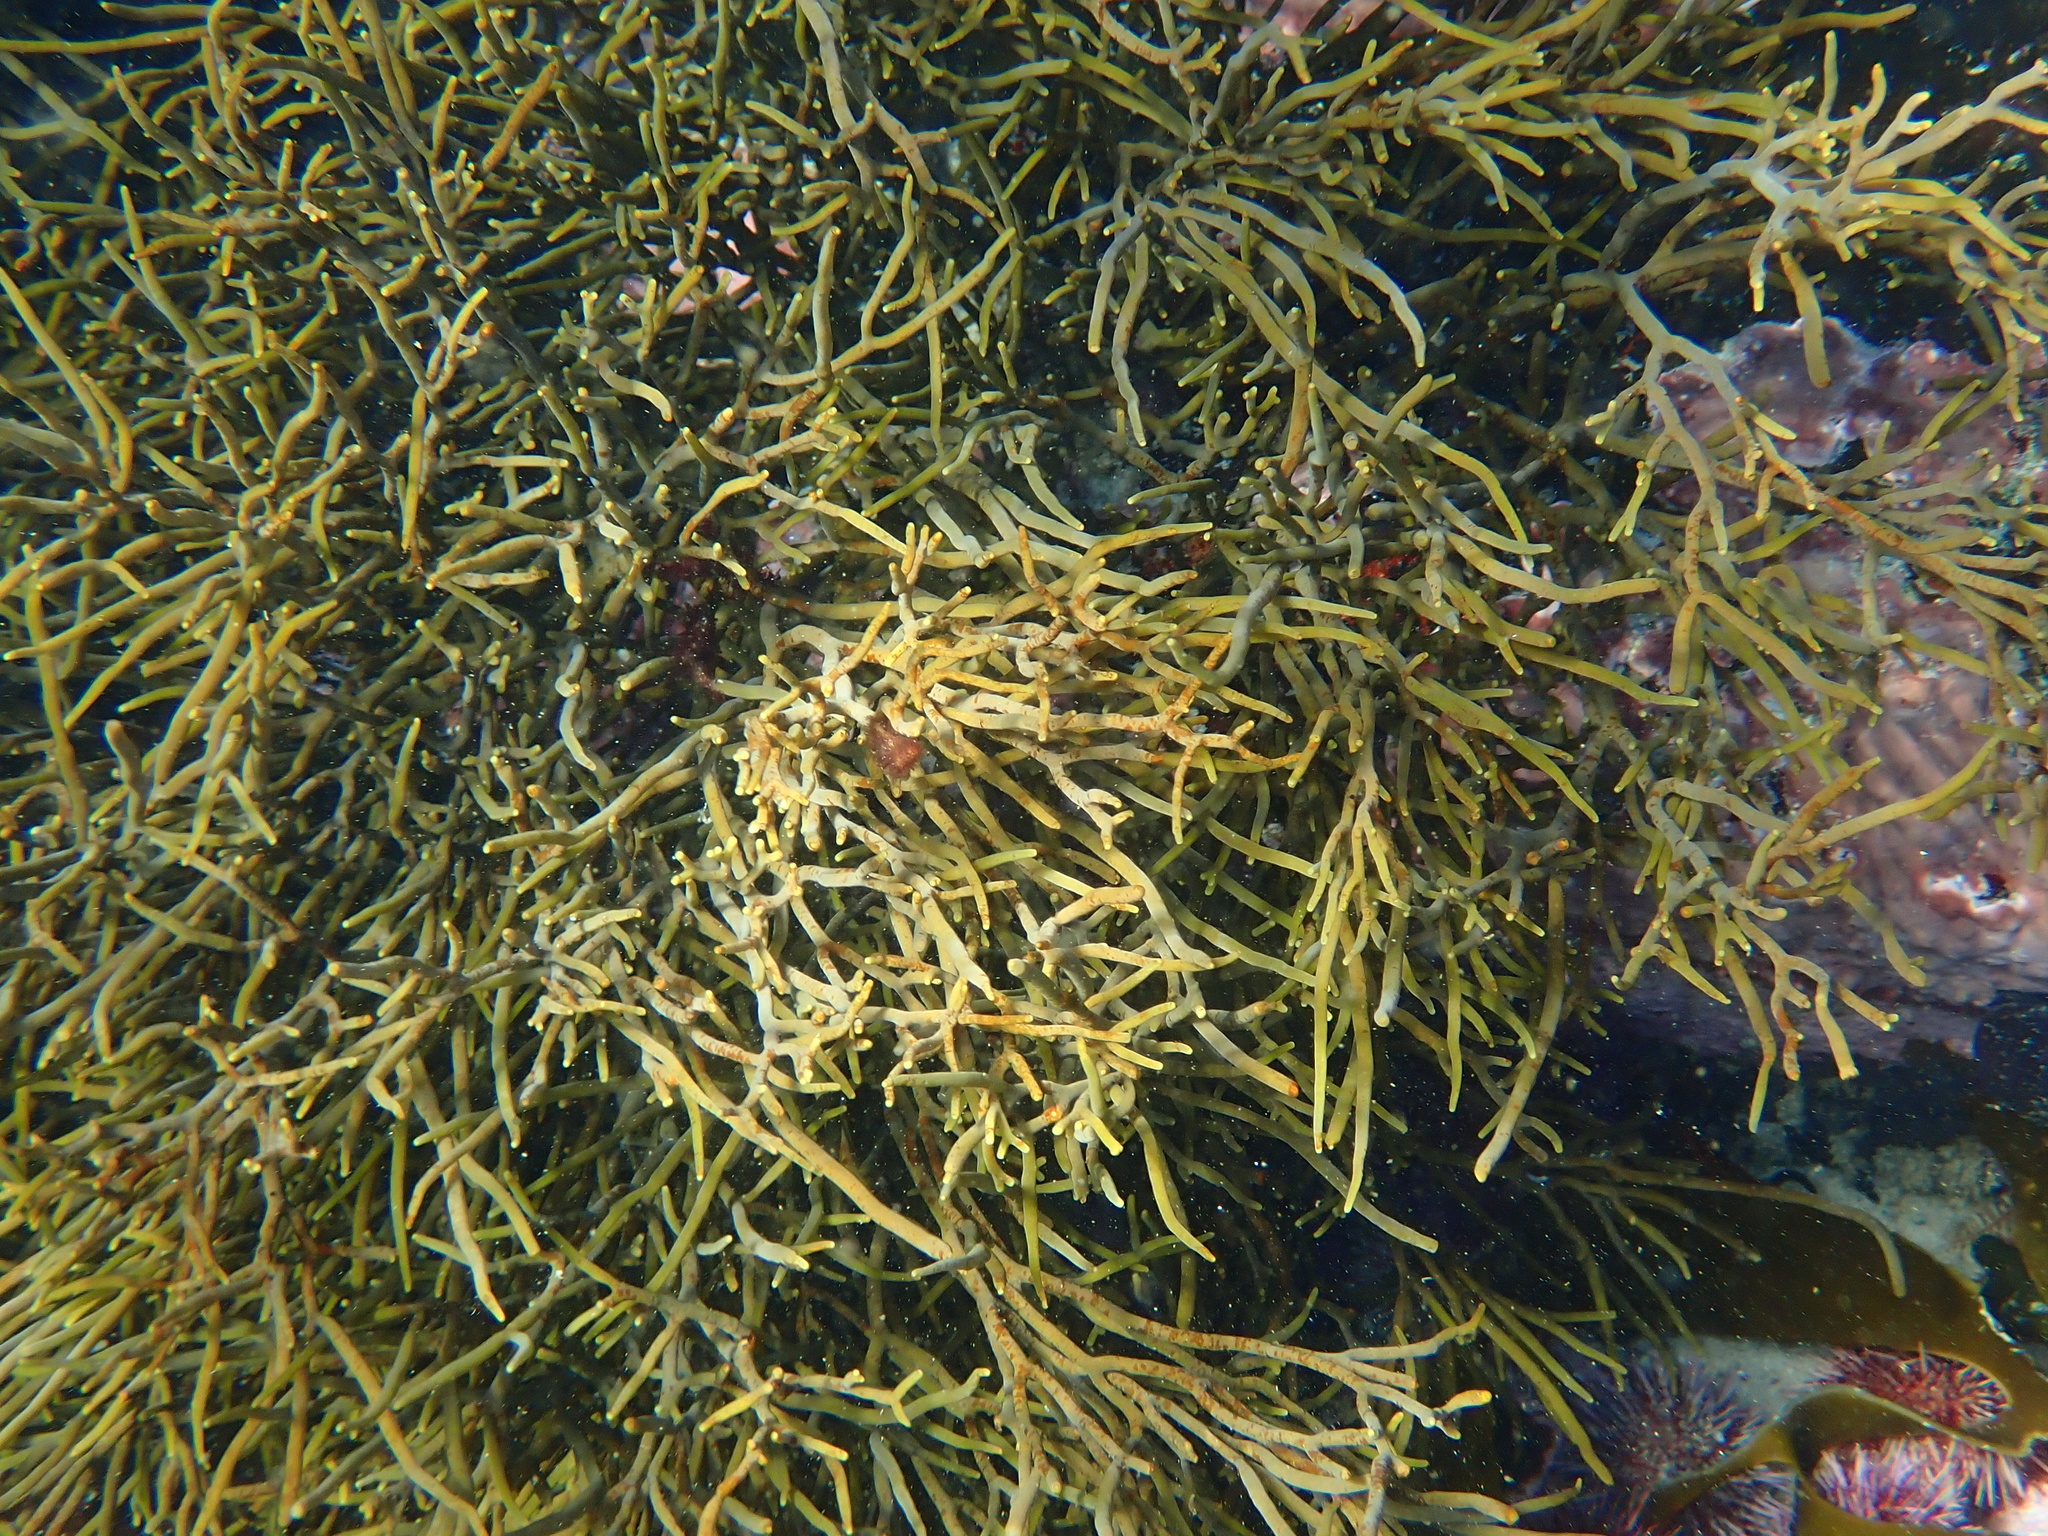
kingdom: Chromista
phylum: Ochrophyta
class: Phaeophyceae
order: Fucales
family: Bifurcariopsidaceae
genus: Bifurcariopsis
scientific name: Bifurcariopsis
